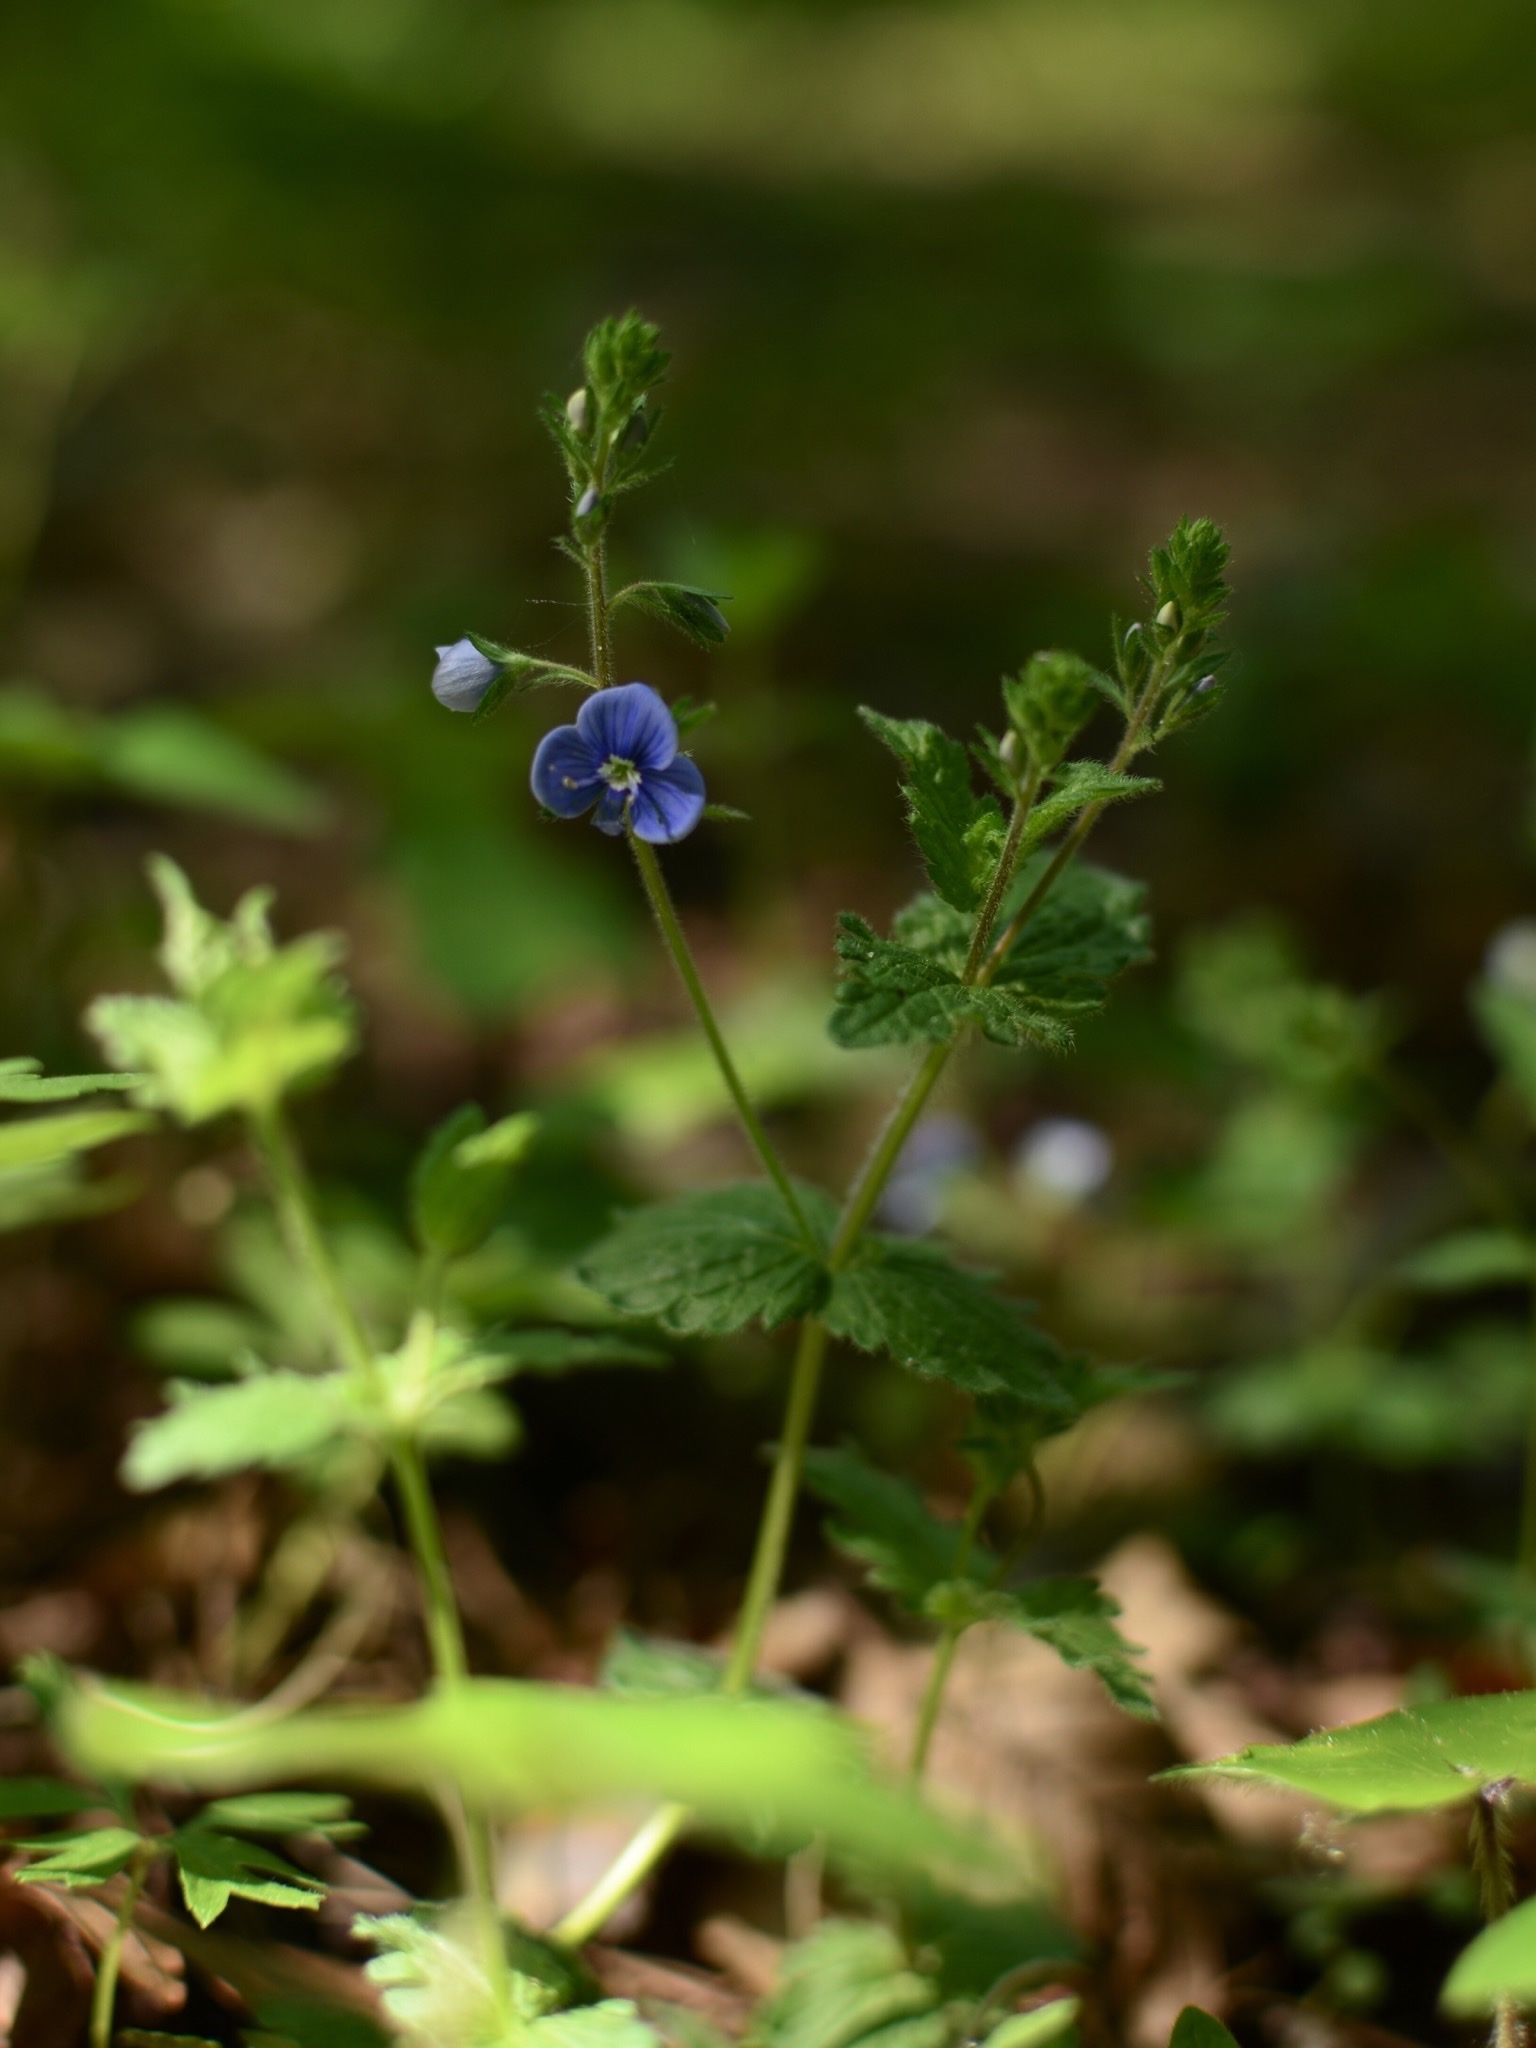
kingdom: Plantae
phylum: Tracheophyta
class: Magnoliopsida
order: Lamiales
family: Plantaginaceae
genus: Veronica
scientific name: Veronica chamaedrys
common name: Germander speedwell
